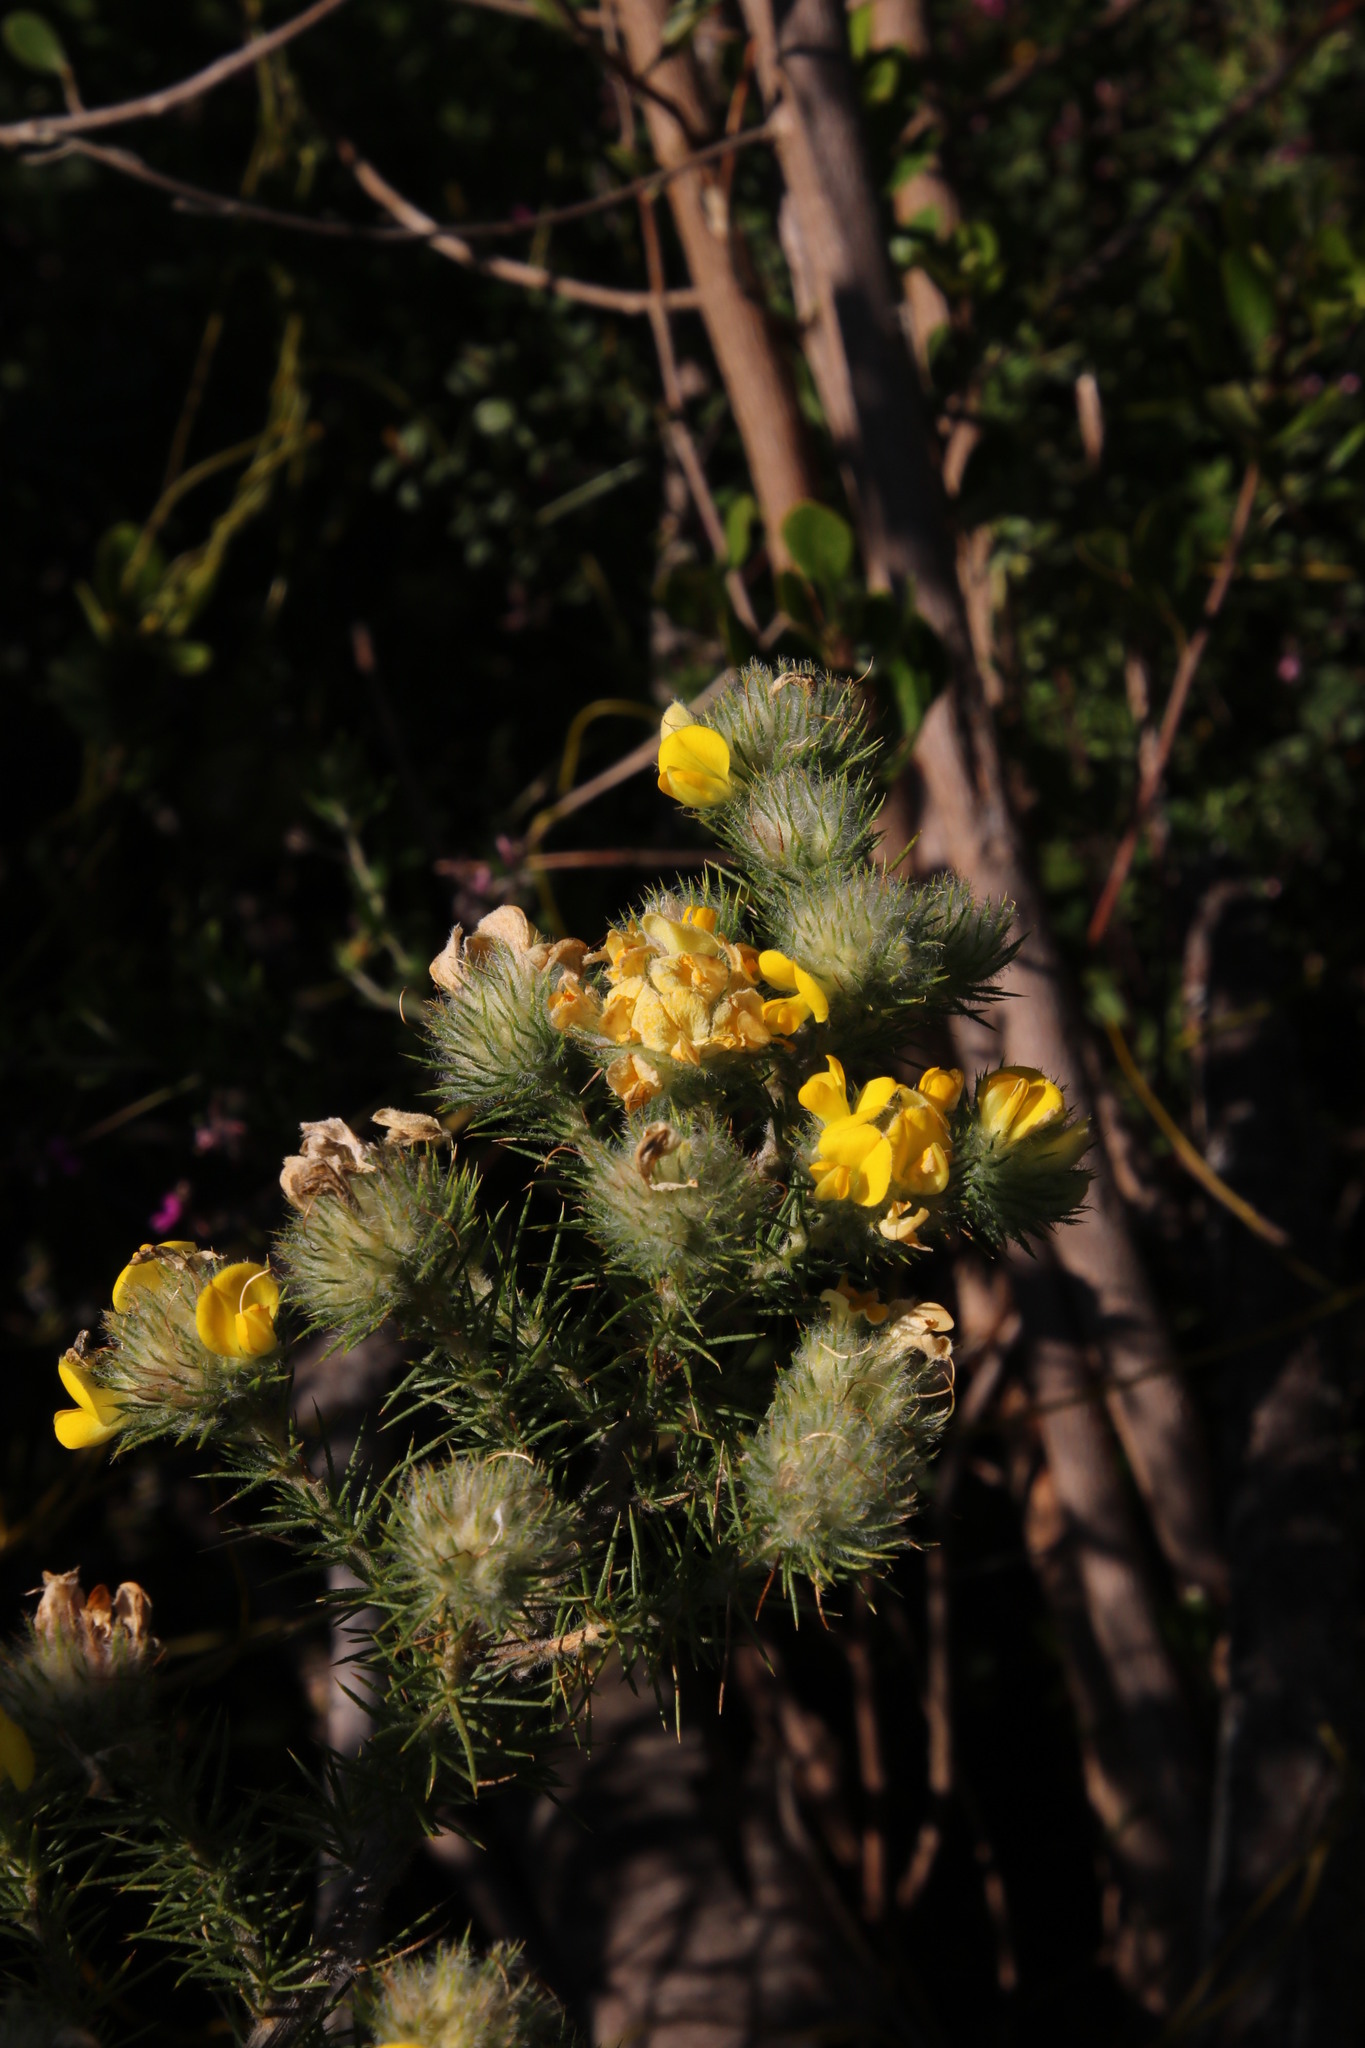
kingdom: Plantae
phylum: Tracheophyta
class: Magnoliopsida
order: Fabales
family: Fabaceae
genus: Aspalathus
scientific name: Aspalathus chenopoda
